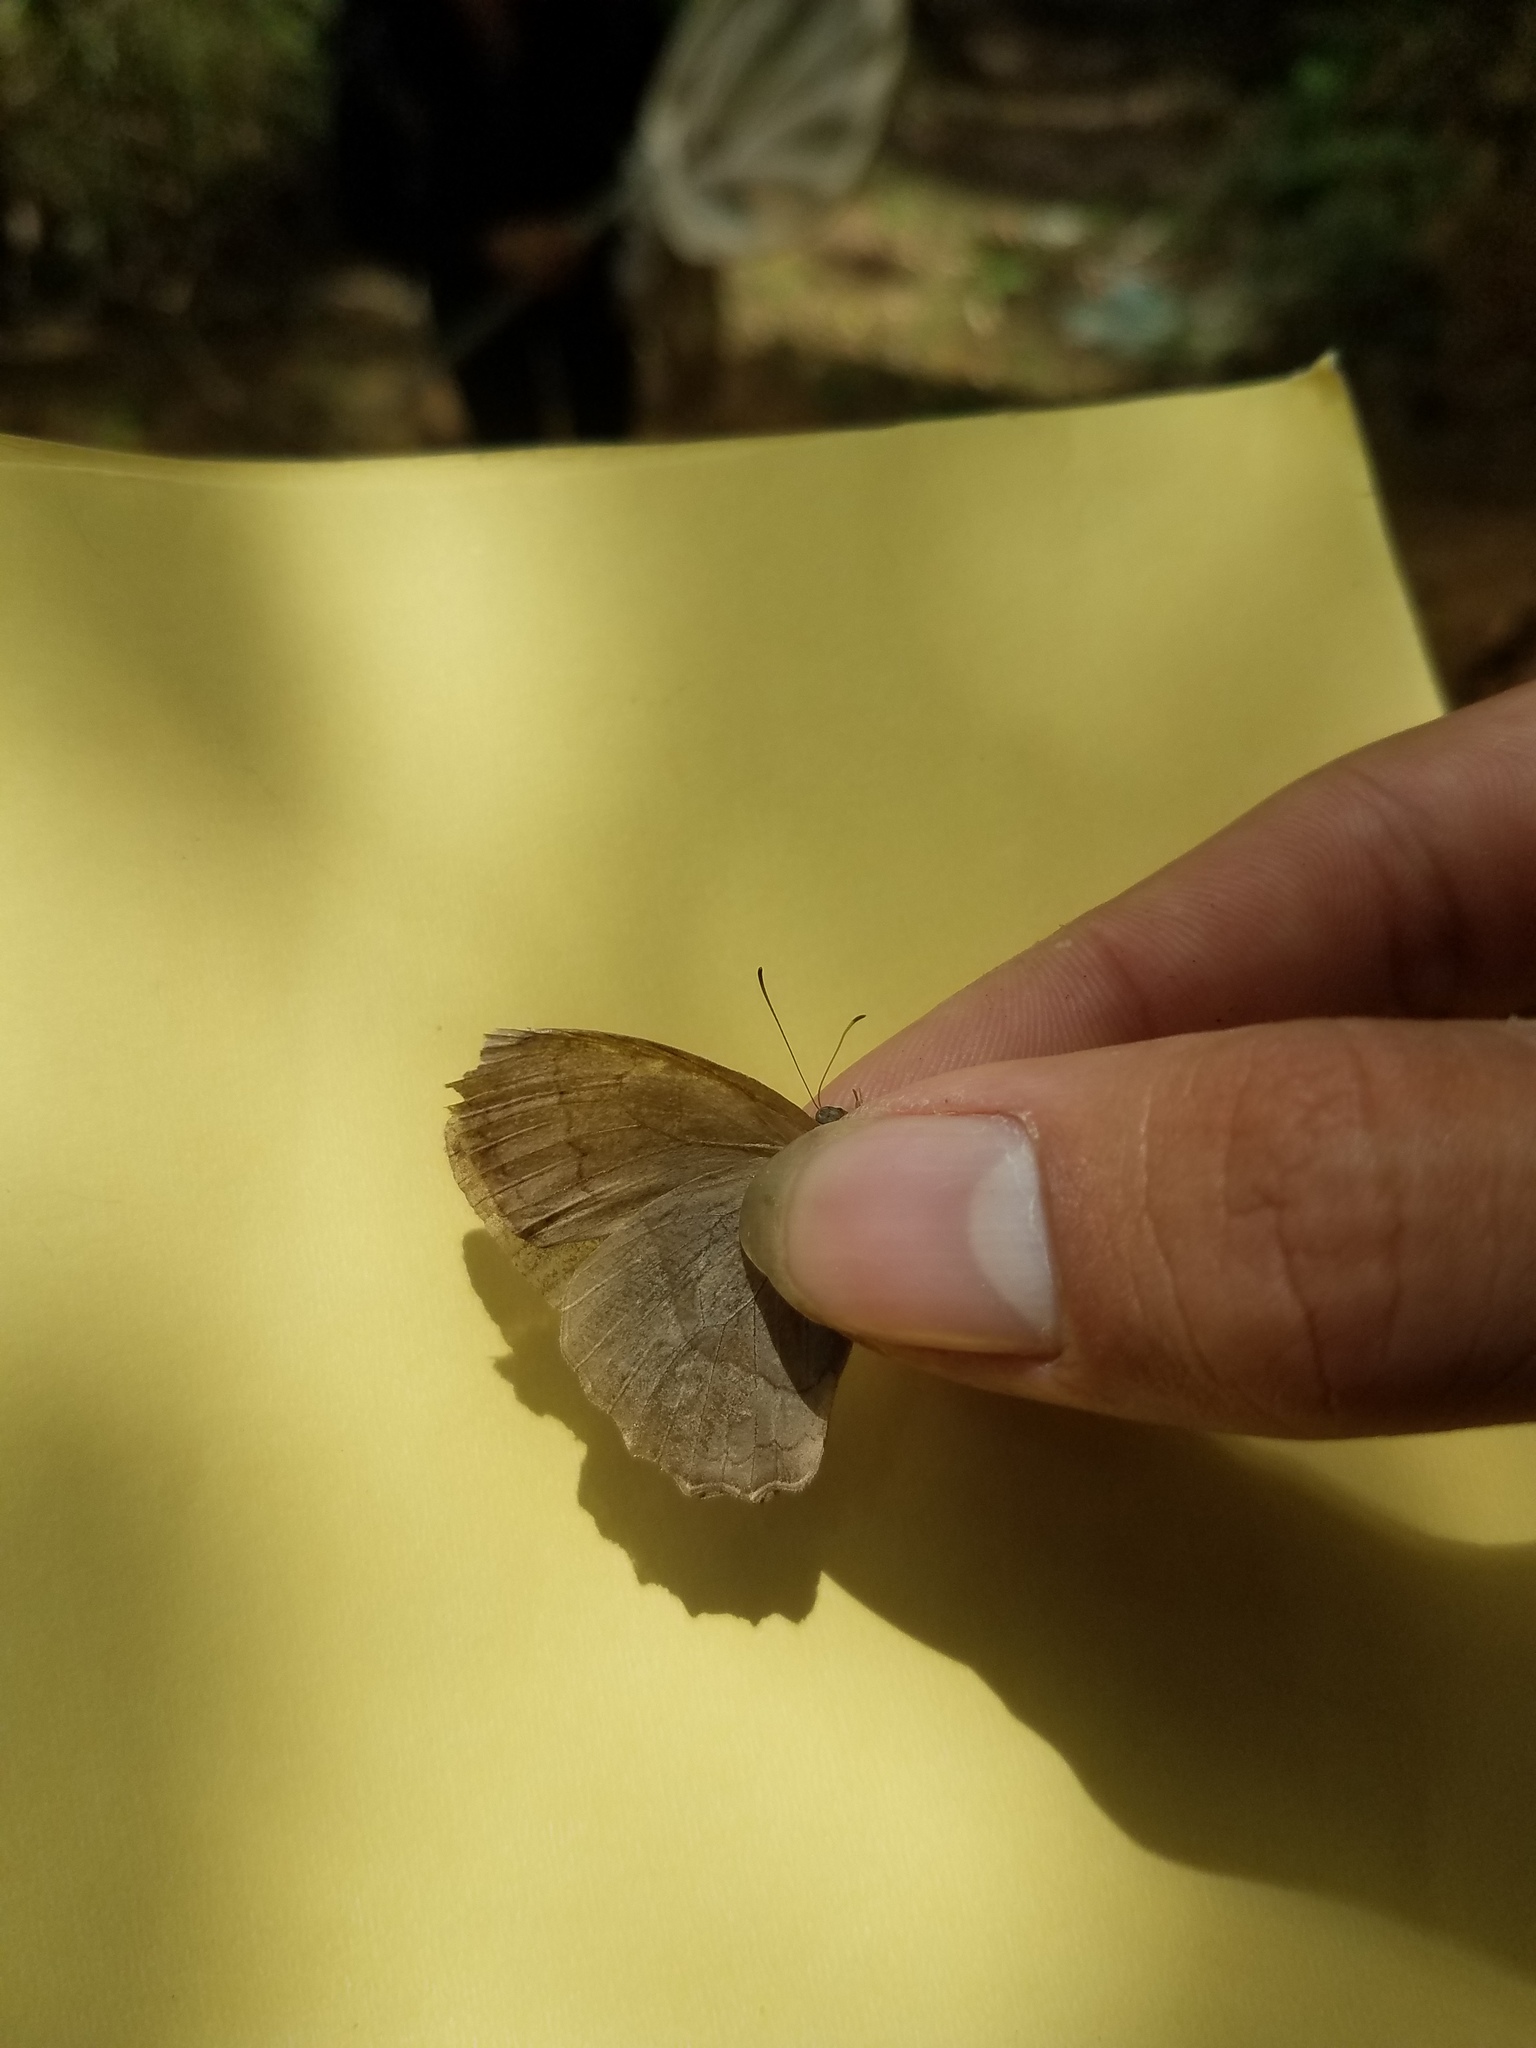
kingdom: Animalia
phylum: Arthropoda
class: Insecta
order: Lepidoptera
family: Nymphalidae
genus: Taygetina
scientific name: Taygetina kerea
